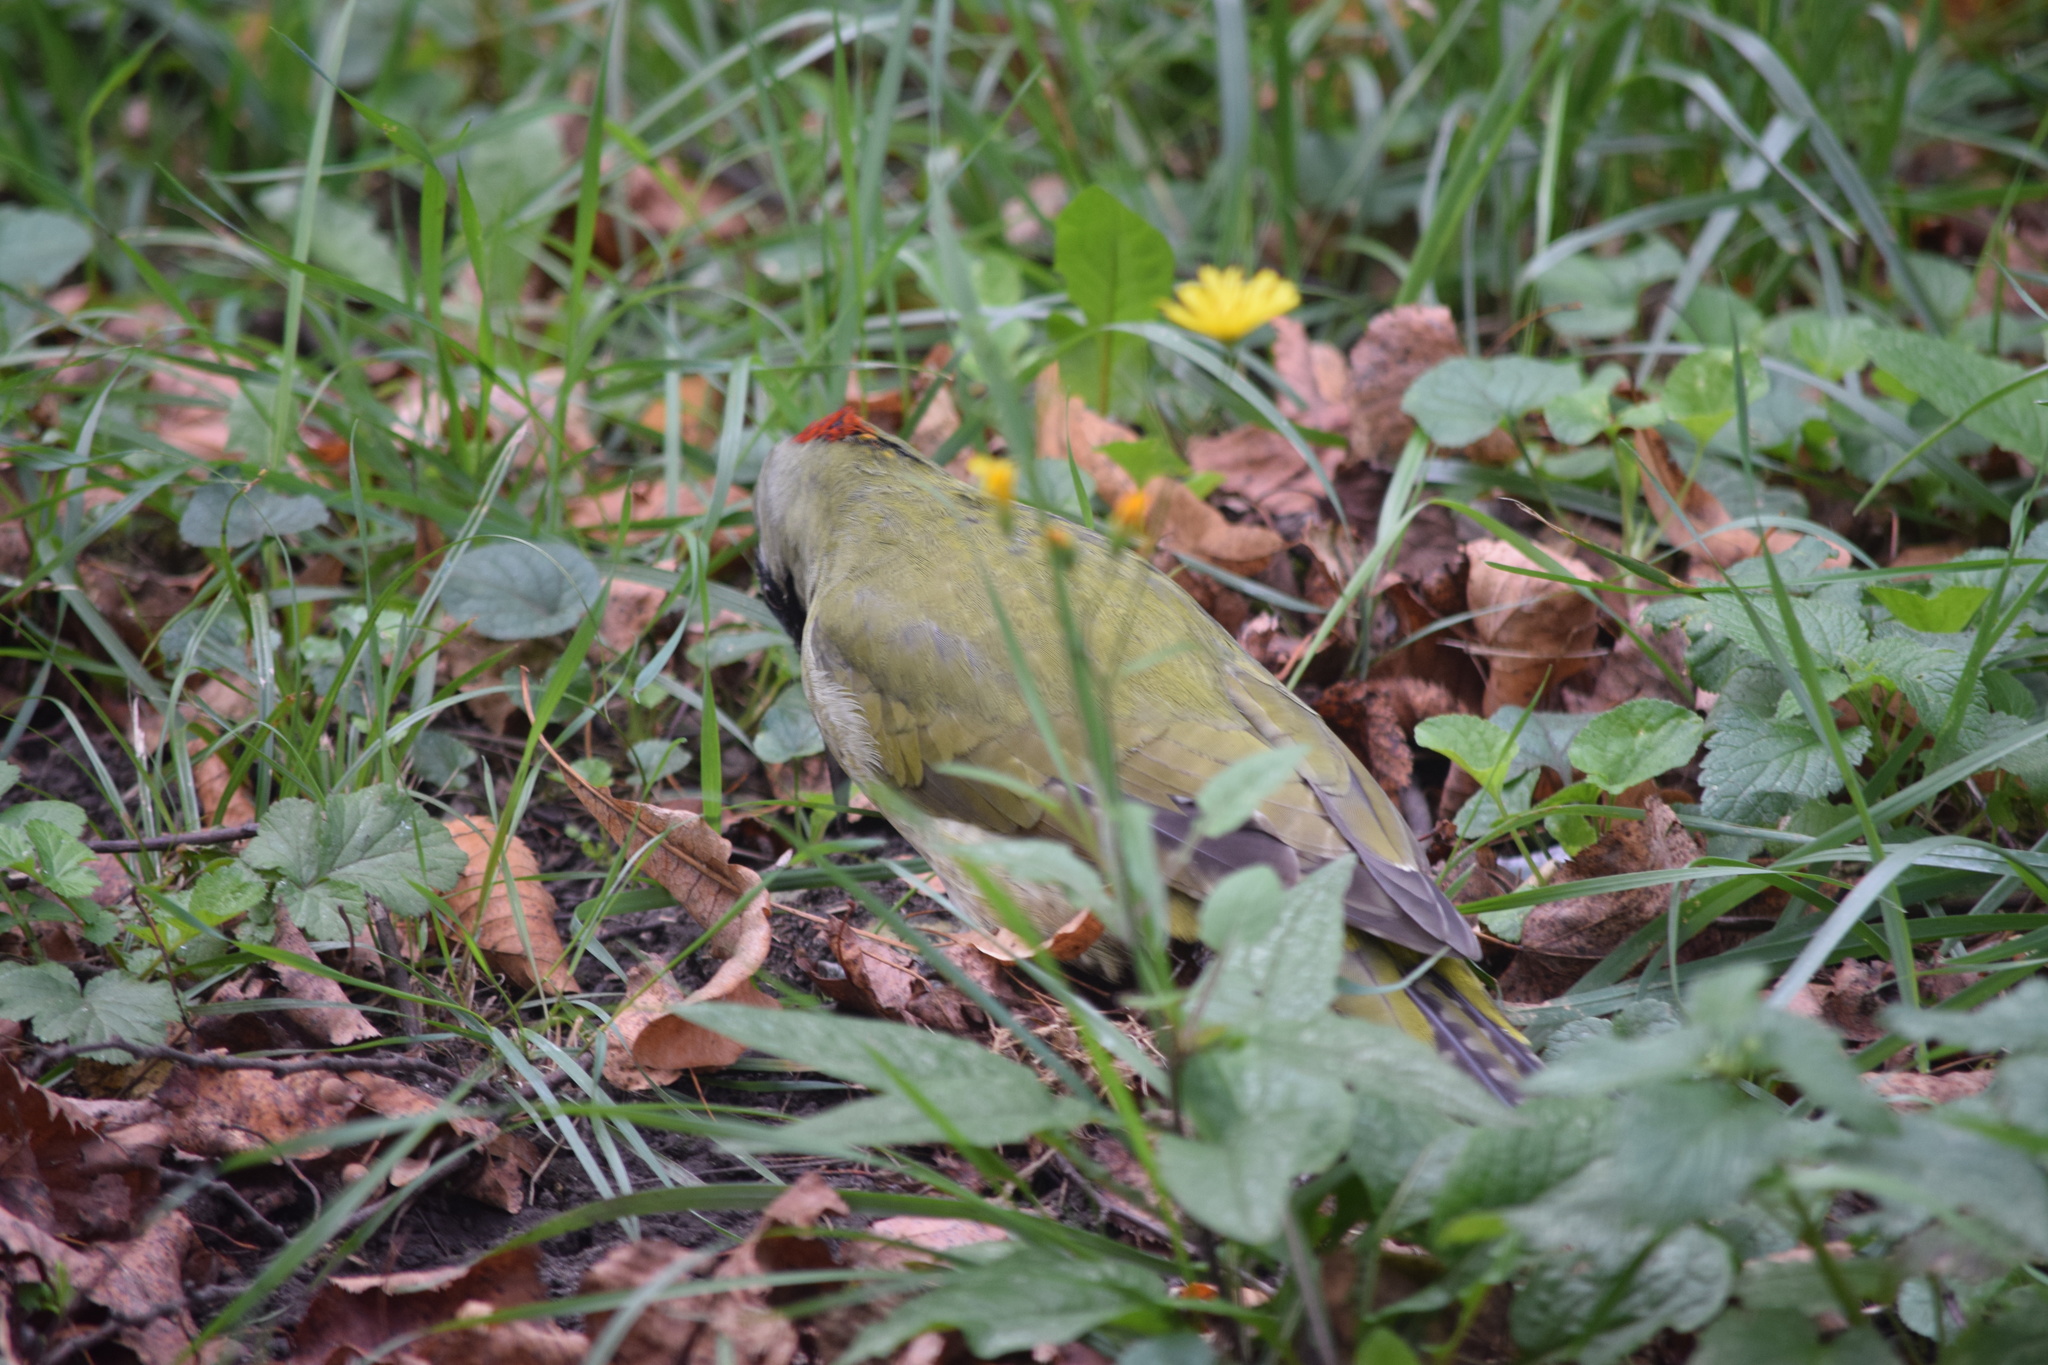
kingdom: Animalia
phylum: Chordata
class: Aves
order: Piciformes
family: Picidae
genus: Picus
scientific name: Picus viridis
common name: European green woodpecker
